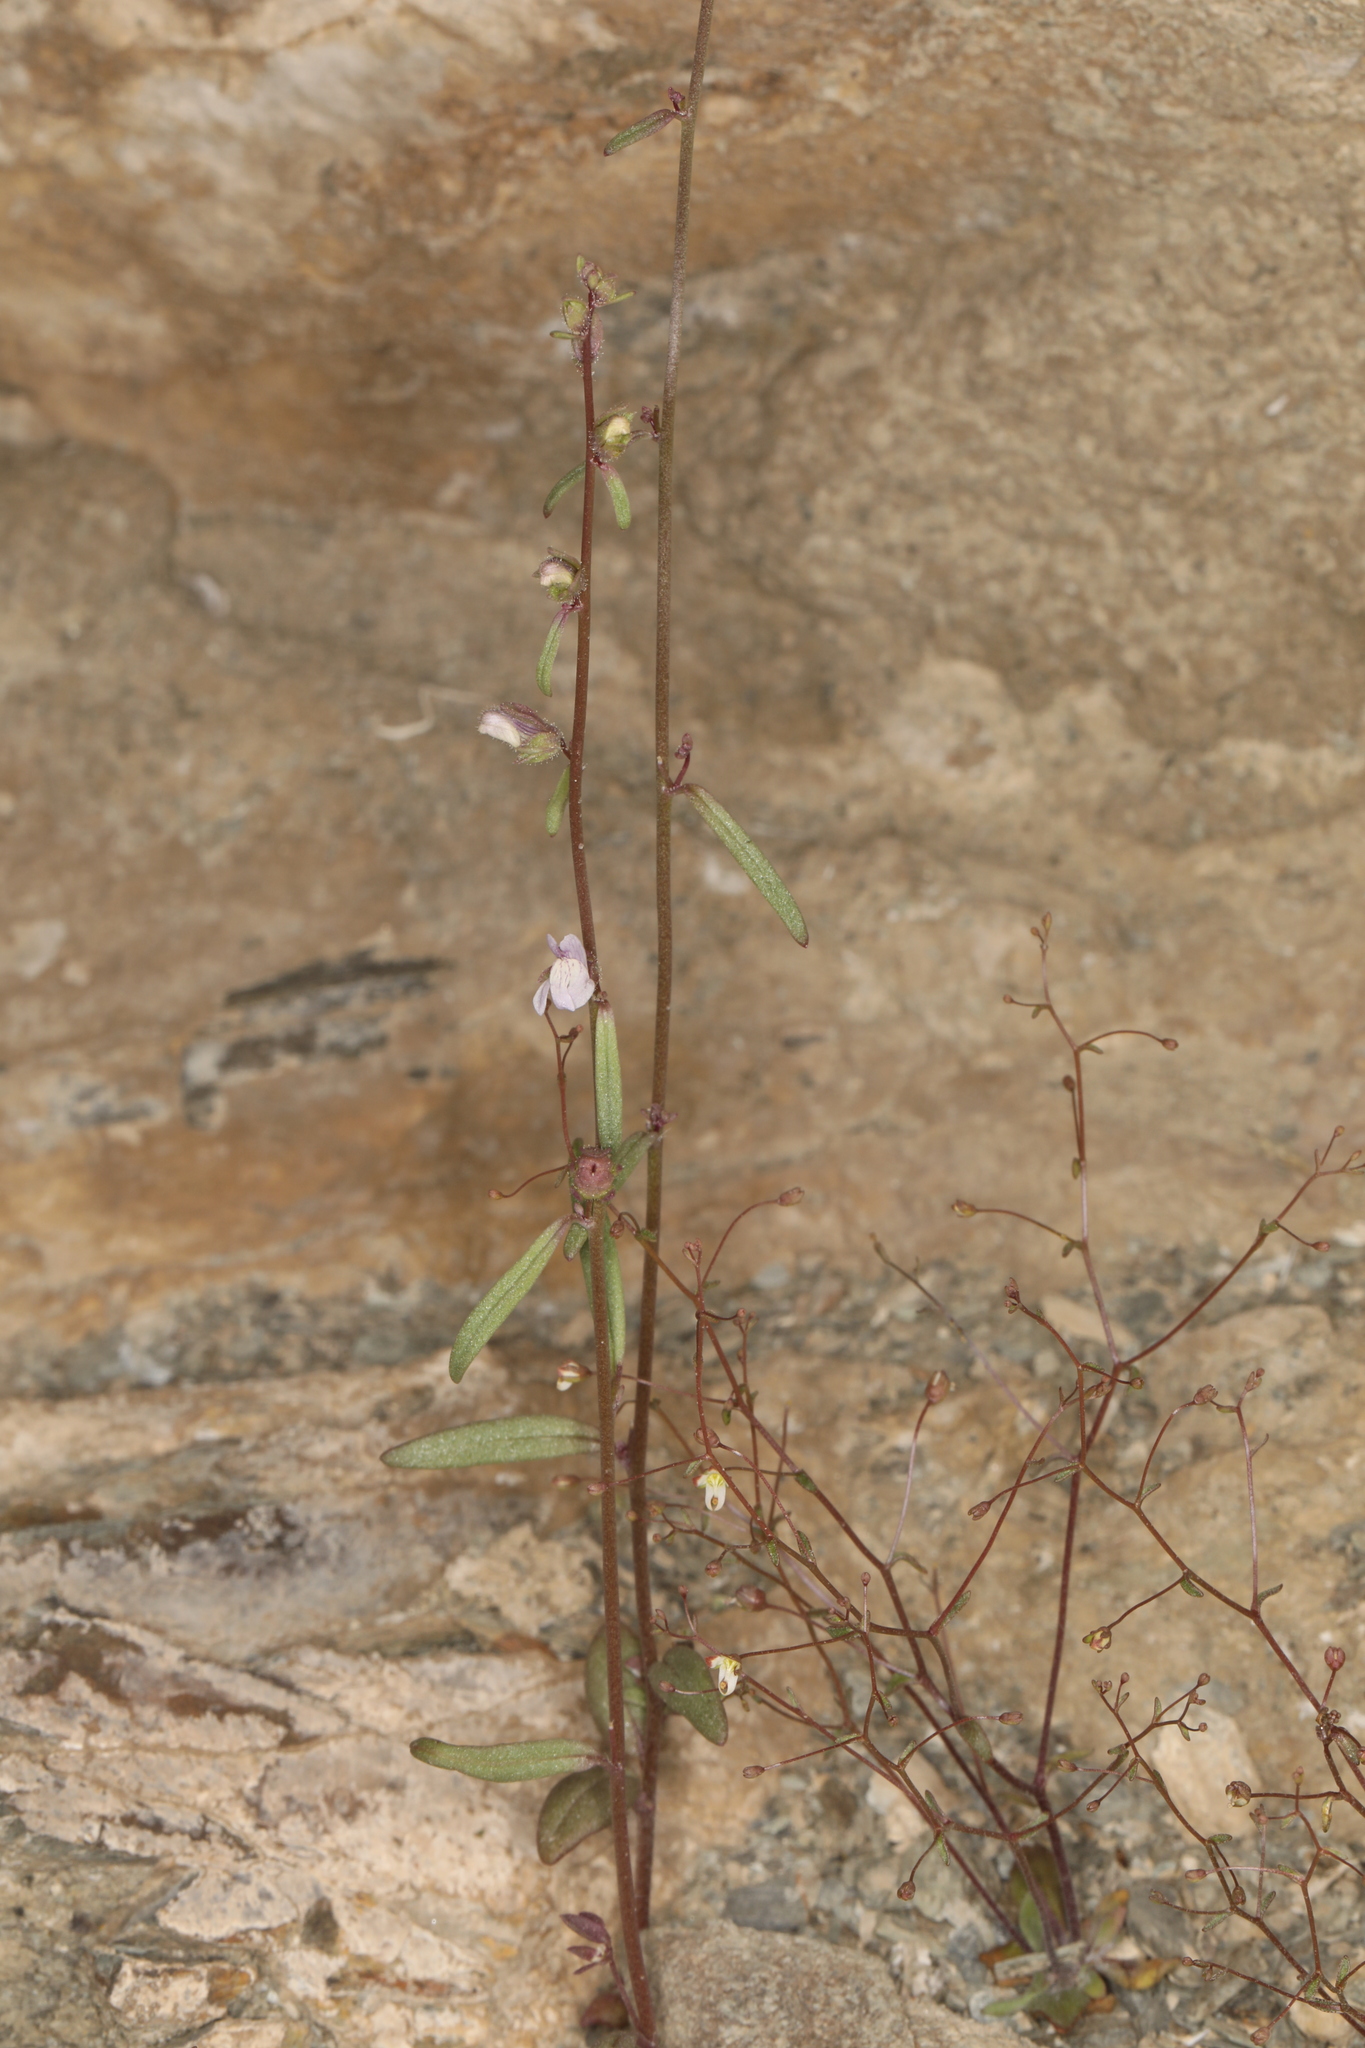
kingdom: Plantae
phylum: Tracheophyta
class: Magnoliopsida
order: Lamiales
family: Plantaginaceae
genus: Sairocarpus
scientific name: Sairocarpus kingii
